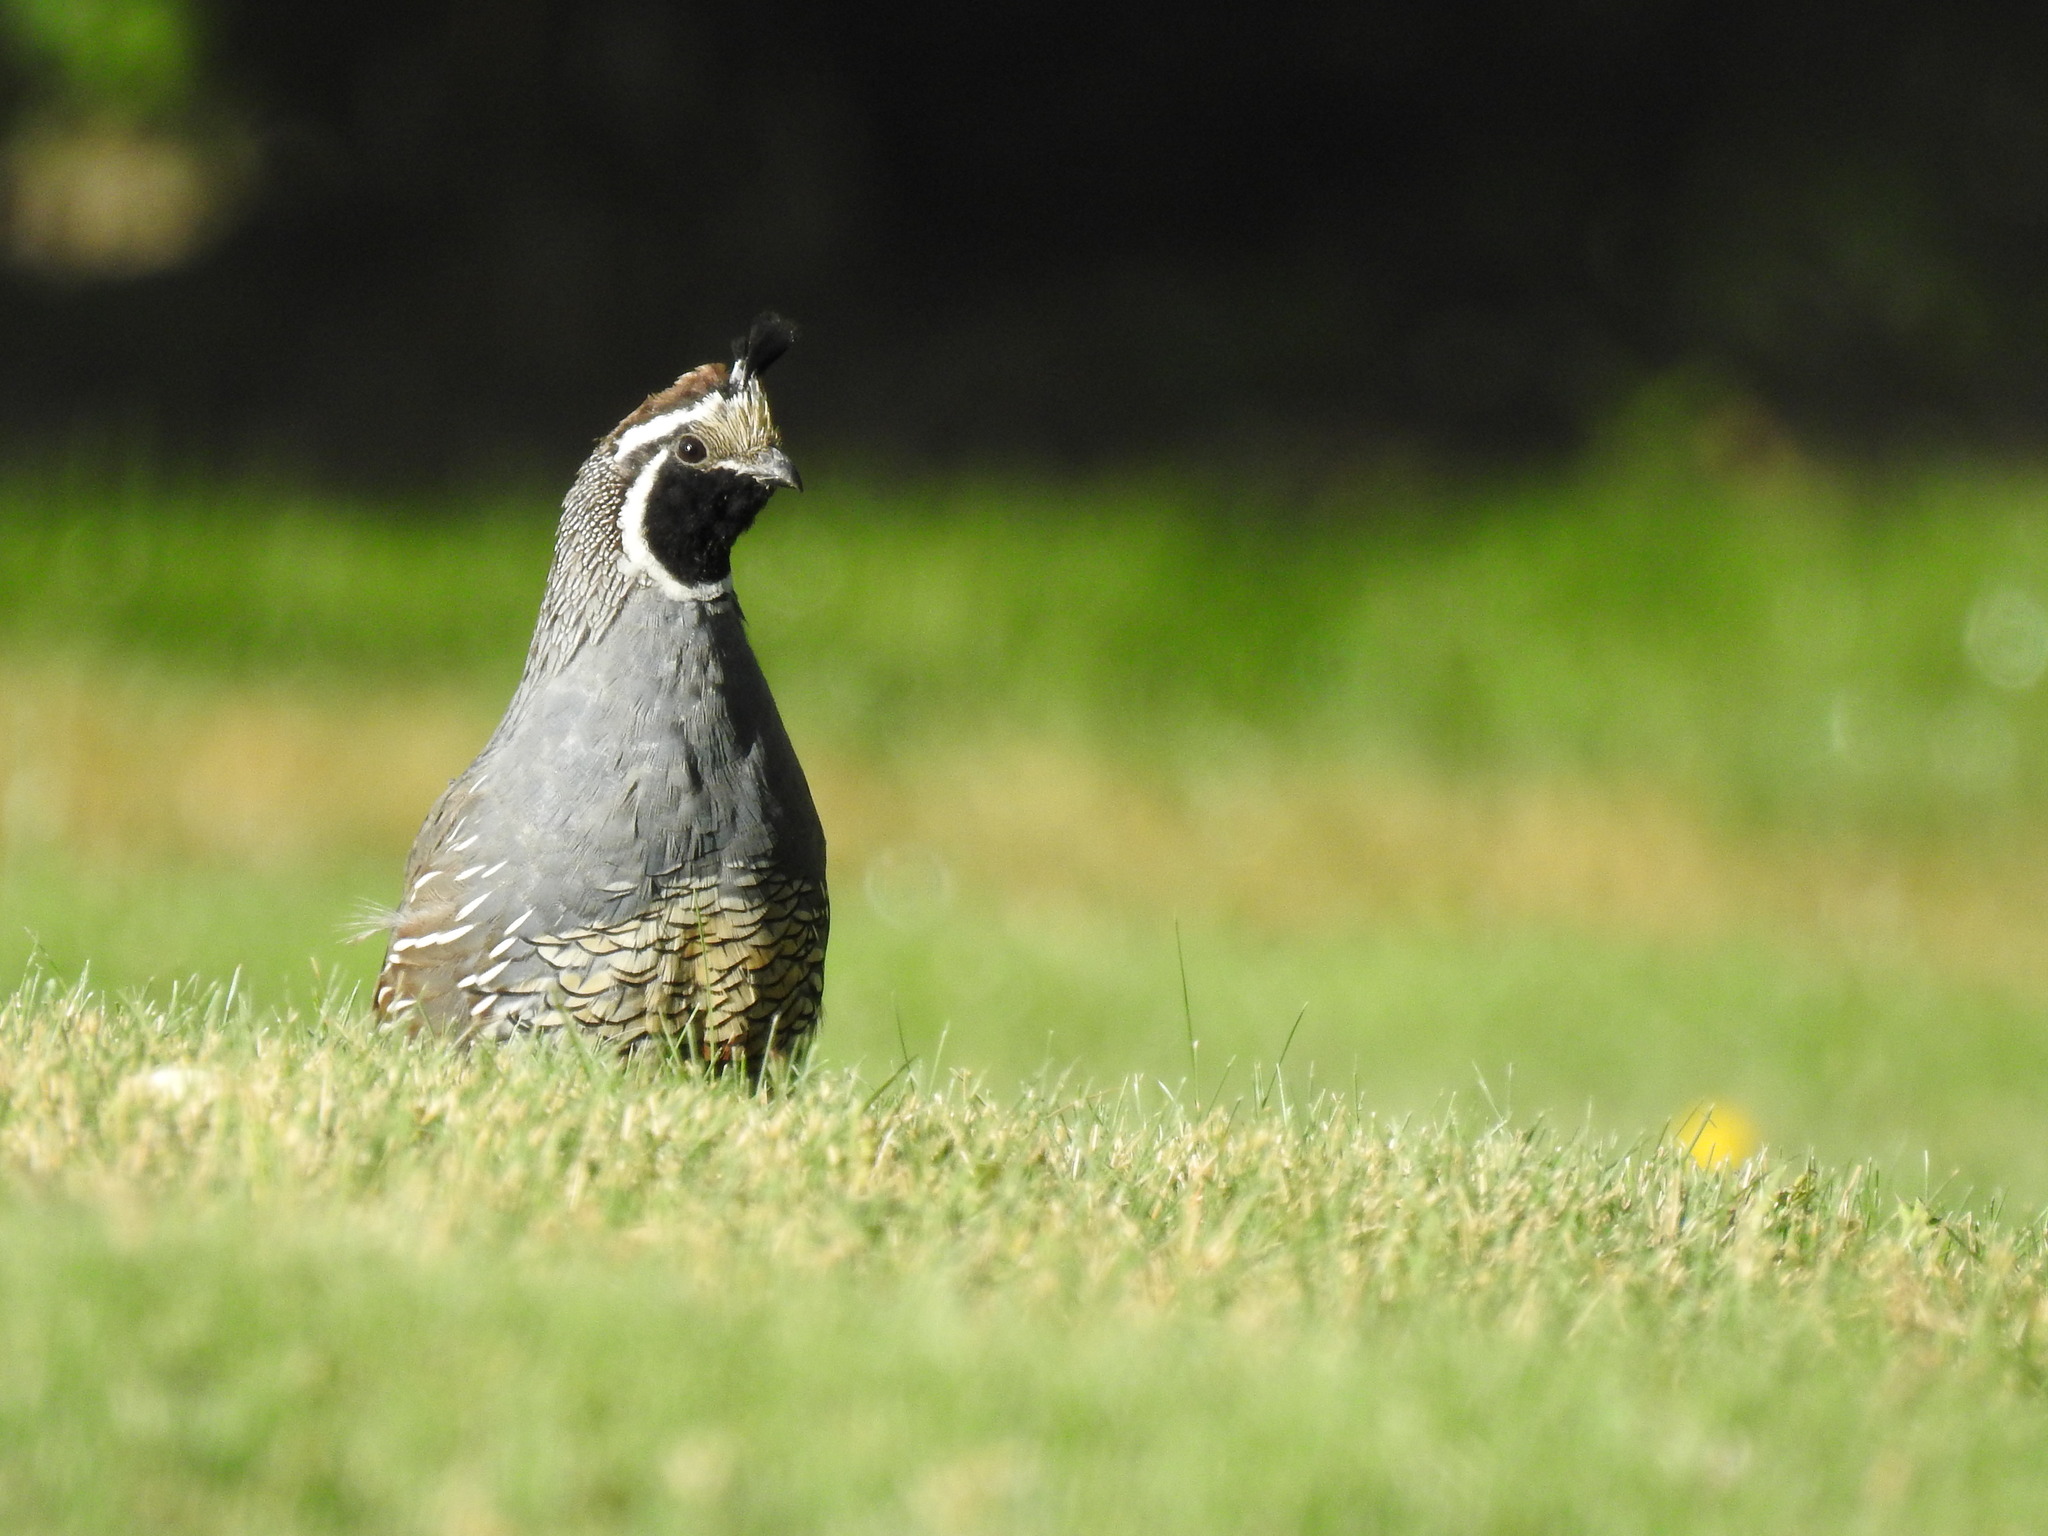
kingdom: Animalia
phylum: Chordata
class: Aves
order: Galliformes
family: Odontophoridae
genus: Callipepla
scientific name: Callipepla californica
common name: California quail
